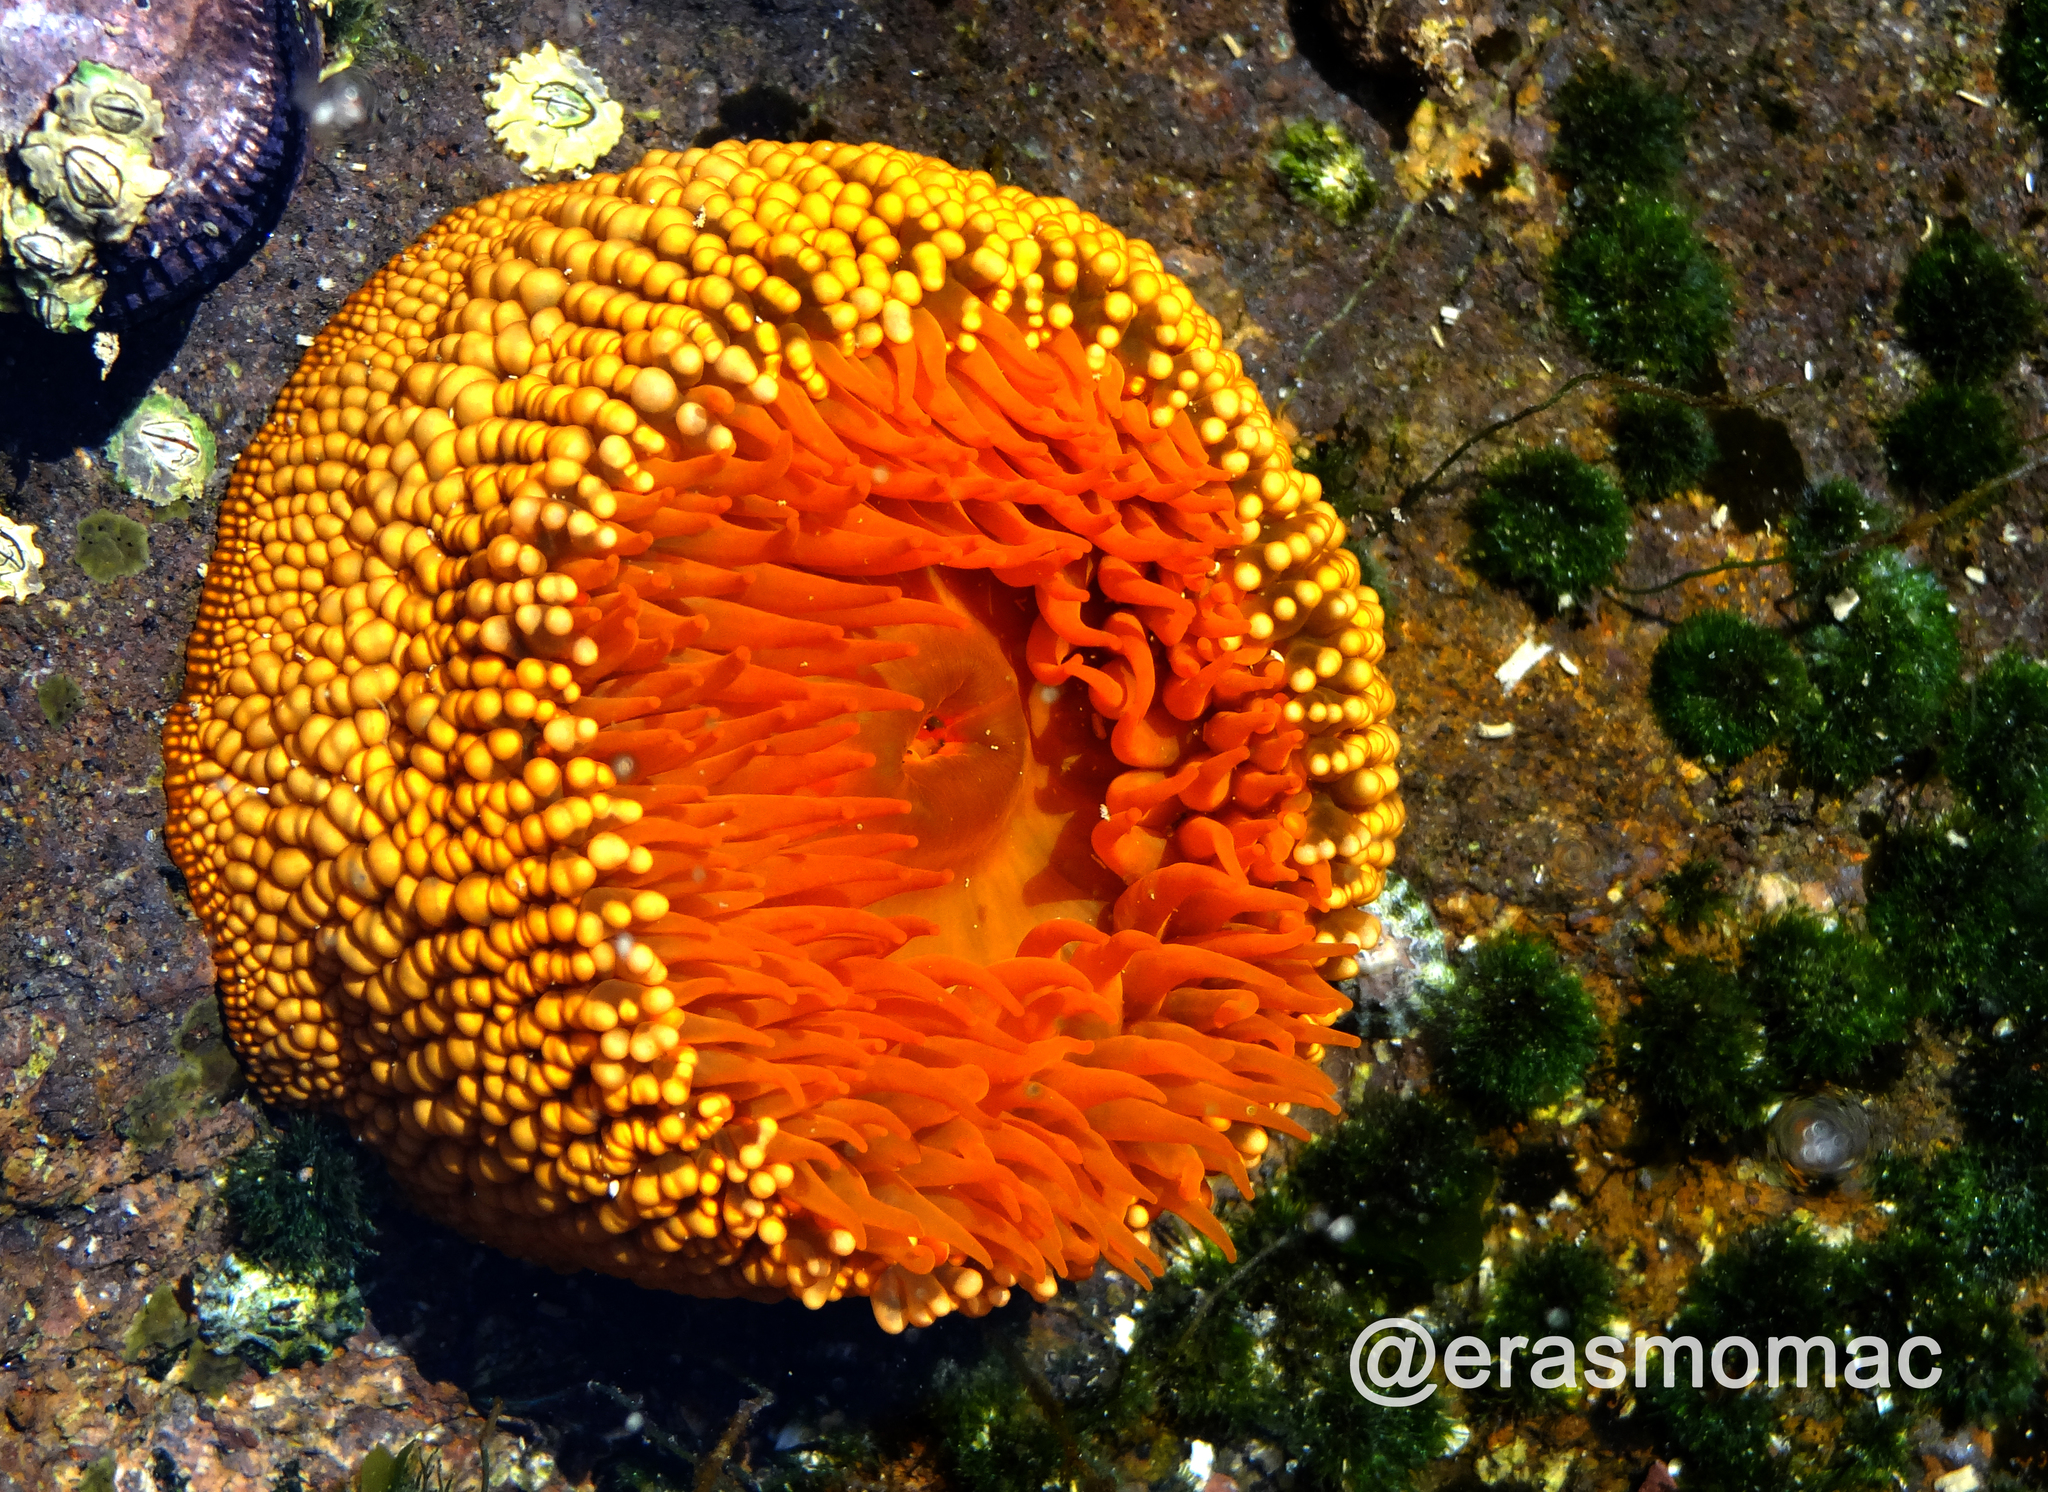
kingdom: Animalia
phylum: Cnidaria
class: Anthozoa
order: Actiniaria
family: Actiniidae
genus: Phymanthea
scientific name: Phymanthea pluvia
